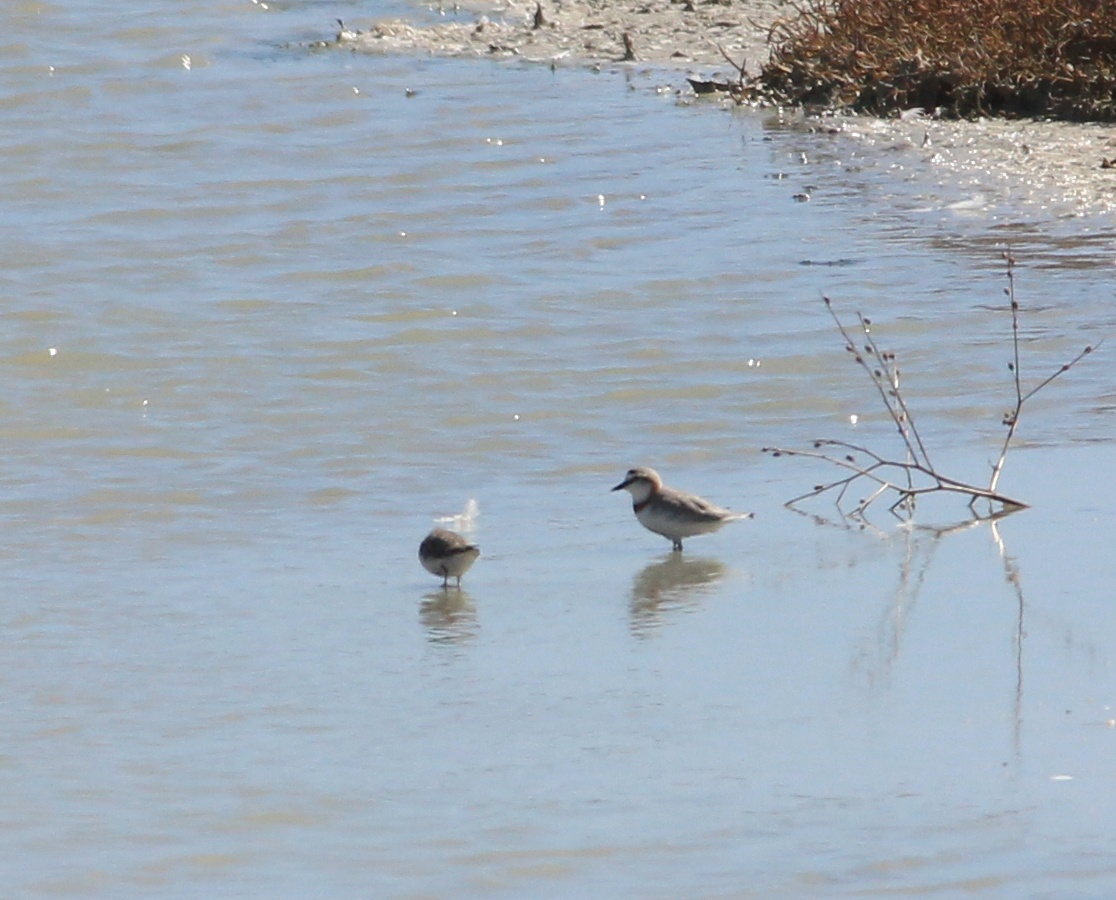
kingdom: Animalia
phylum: Chordata
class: Aves
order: Charadriiformes
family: Charadriidae
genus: Anarhynchus
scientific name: Anarhynchus
